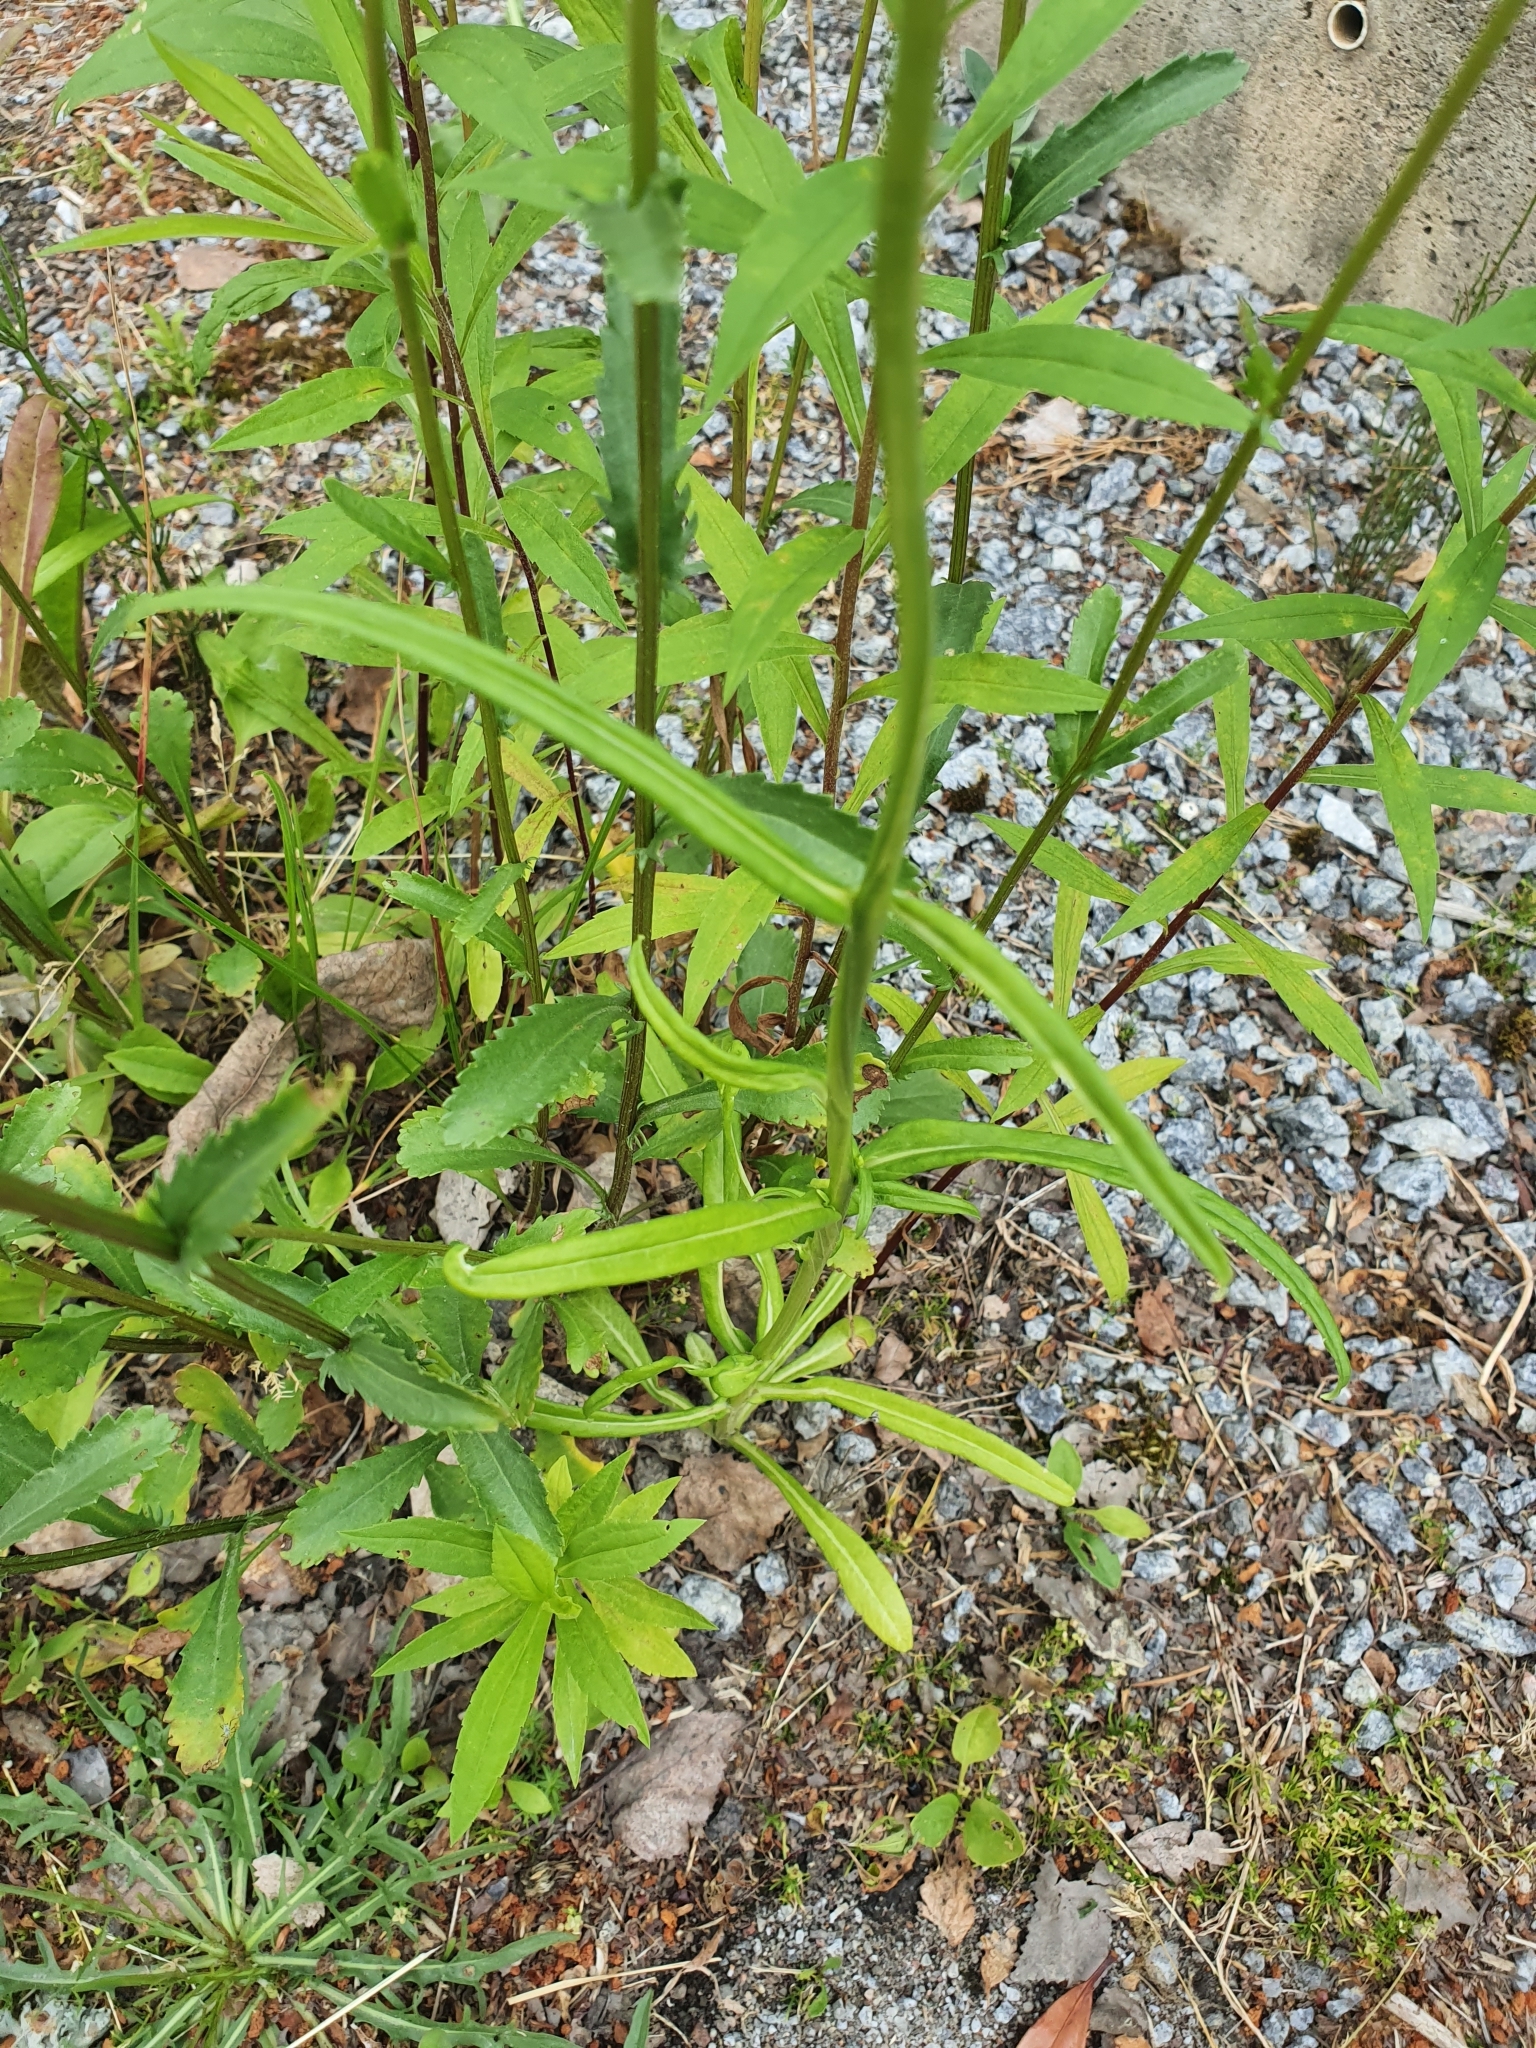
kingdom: Plantae
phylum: Tracheophyta
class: Magnoliopsida
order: Asterales
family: Campanulaceae
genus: Campanula
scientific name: Campanula persicifolia
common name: Peach-leaved bellflower
